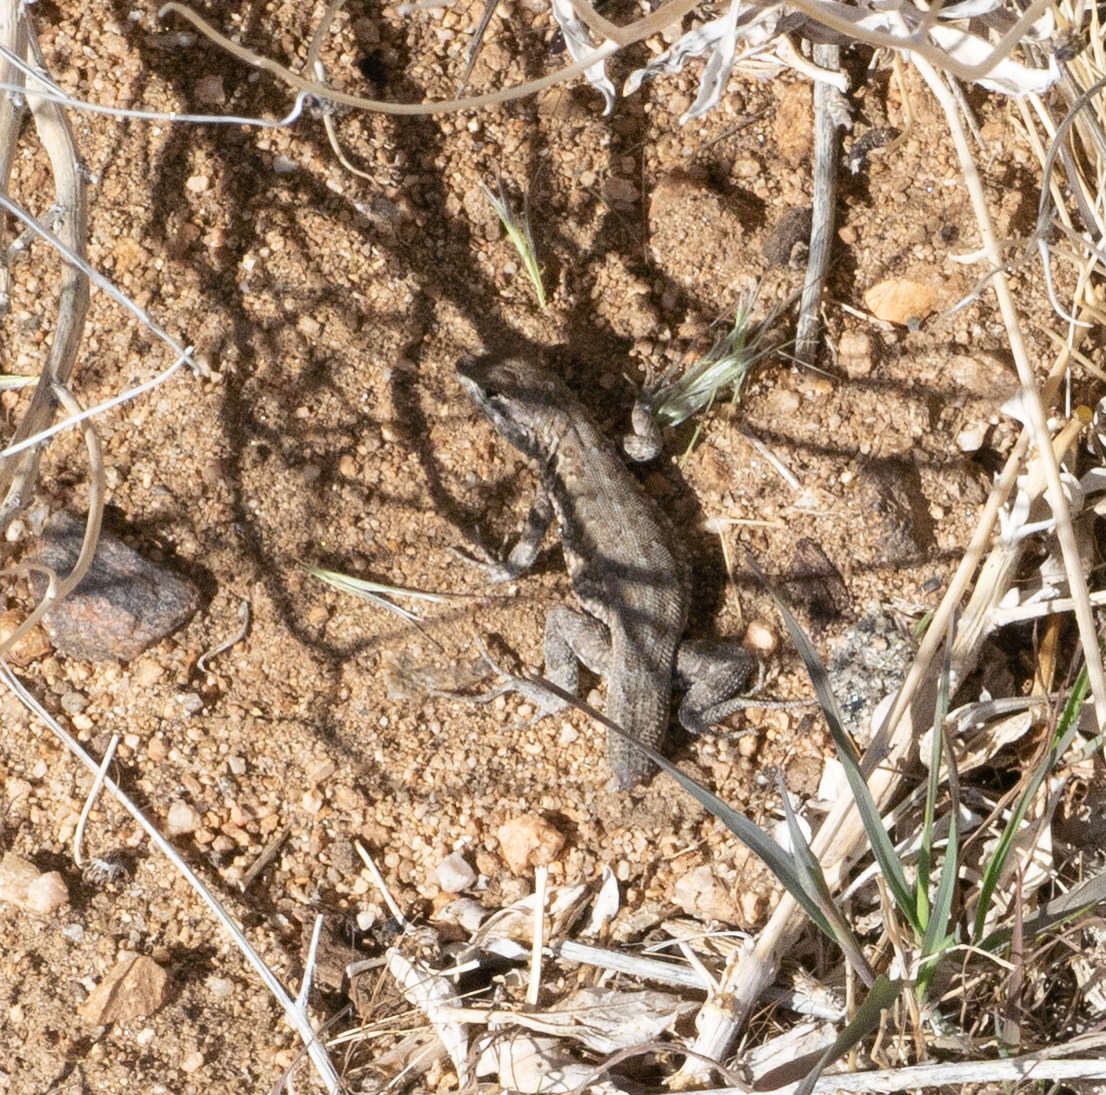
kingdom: Animalia
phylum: Chordata
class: Squamata
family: Phrynosomatidae
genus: Uta
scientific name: Uta stansburiana
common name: Side-blotched lizard
